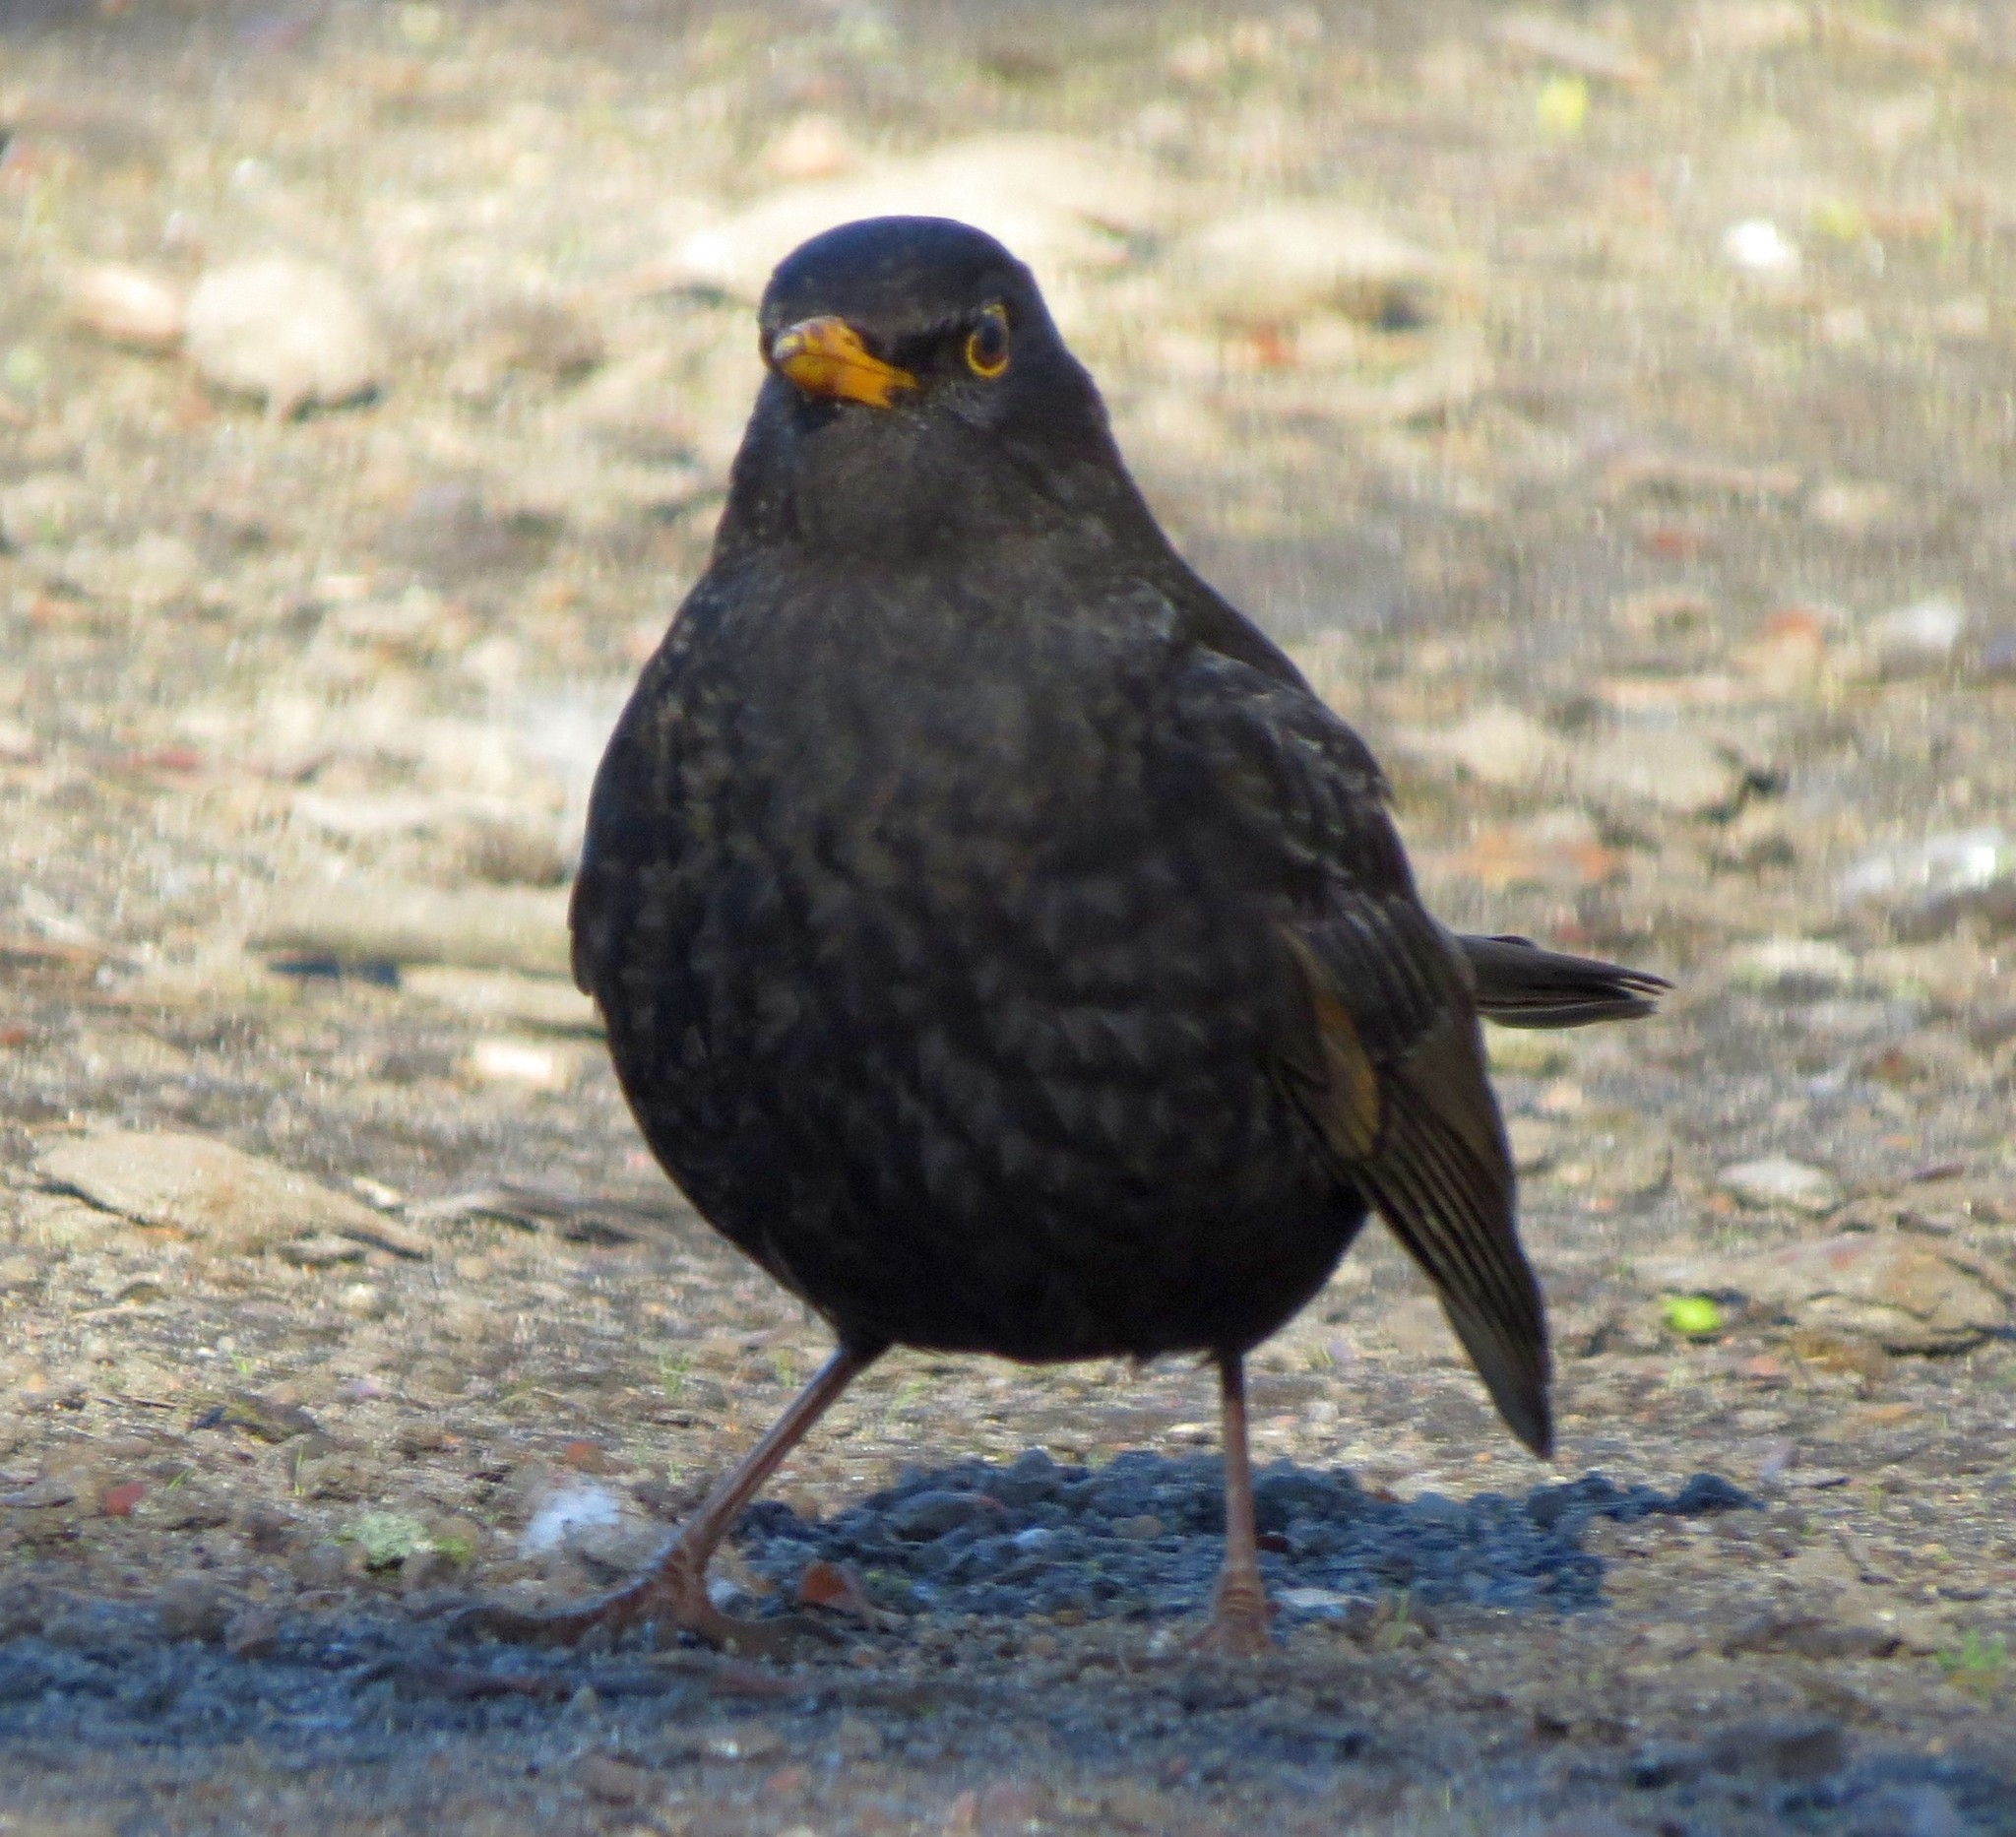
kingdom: Animalia
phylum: Chordata
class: Aves
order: Passeriformes
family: Turdidae
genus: Turdus
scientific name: Turdus merula
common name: Common blackbird
